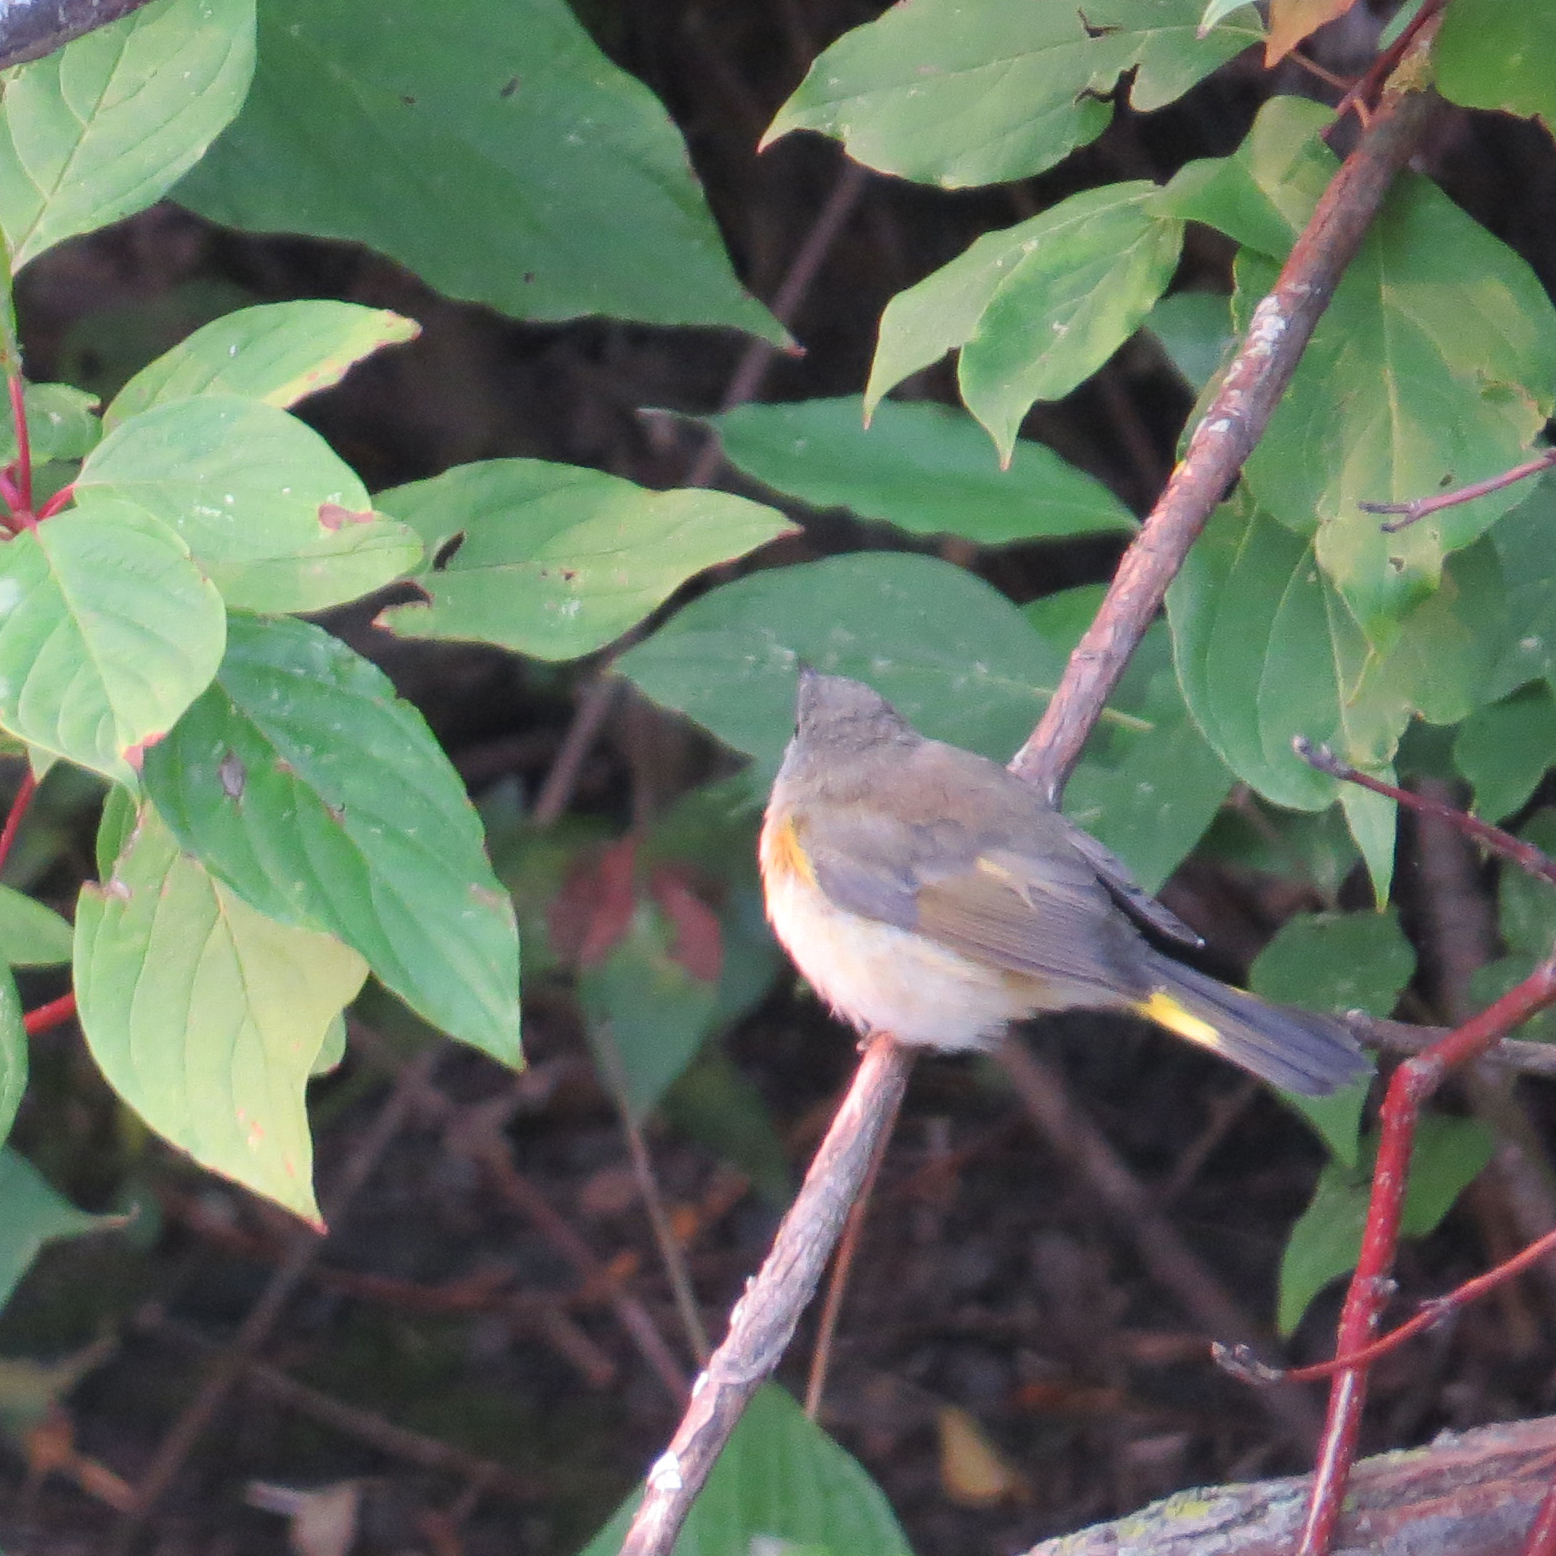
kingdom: Animalia
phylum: Chordata
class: Aves
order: Passeriformes
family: Parulidae
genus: Setophaga
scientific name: Setophaga ruticilla
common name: American redstart
